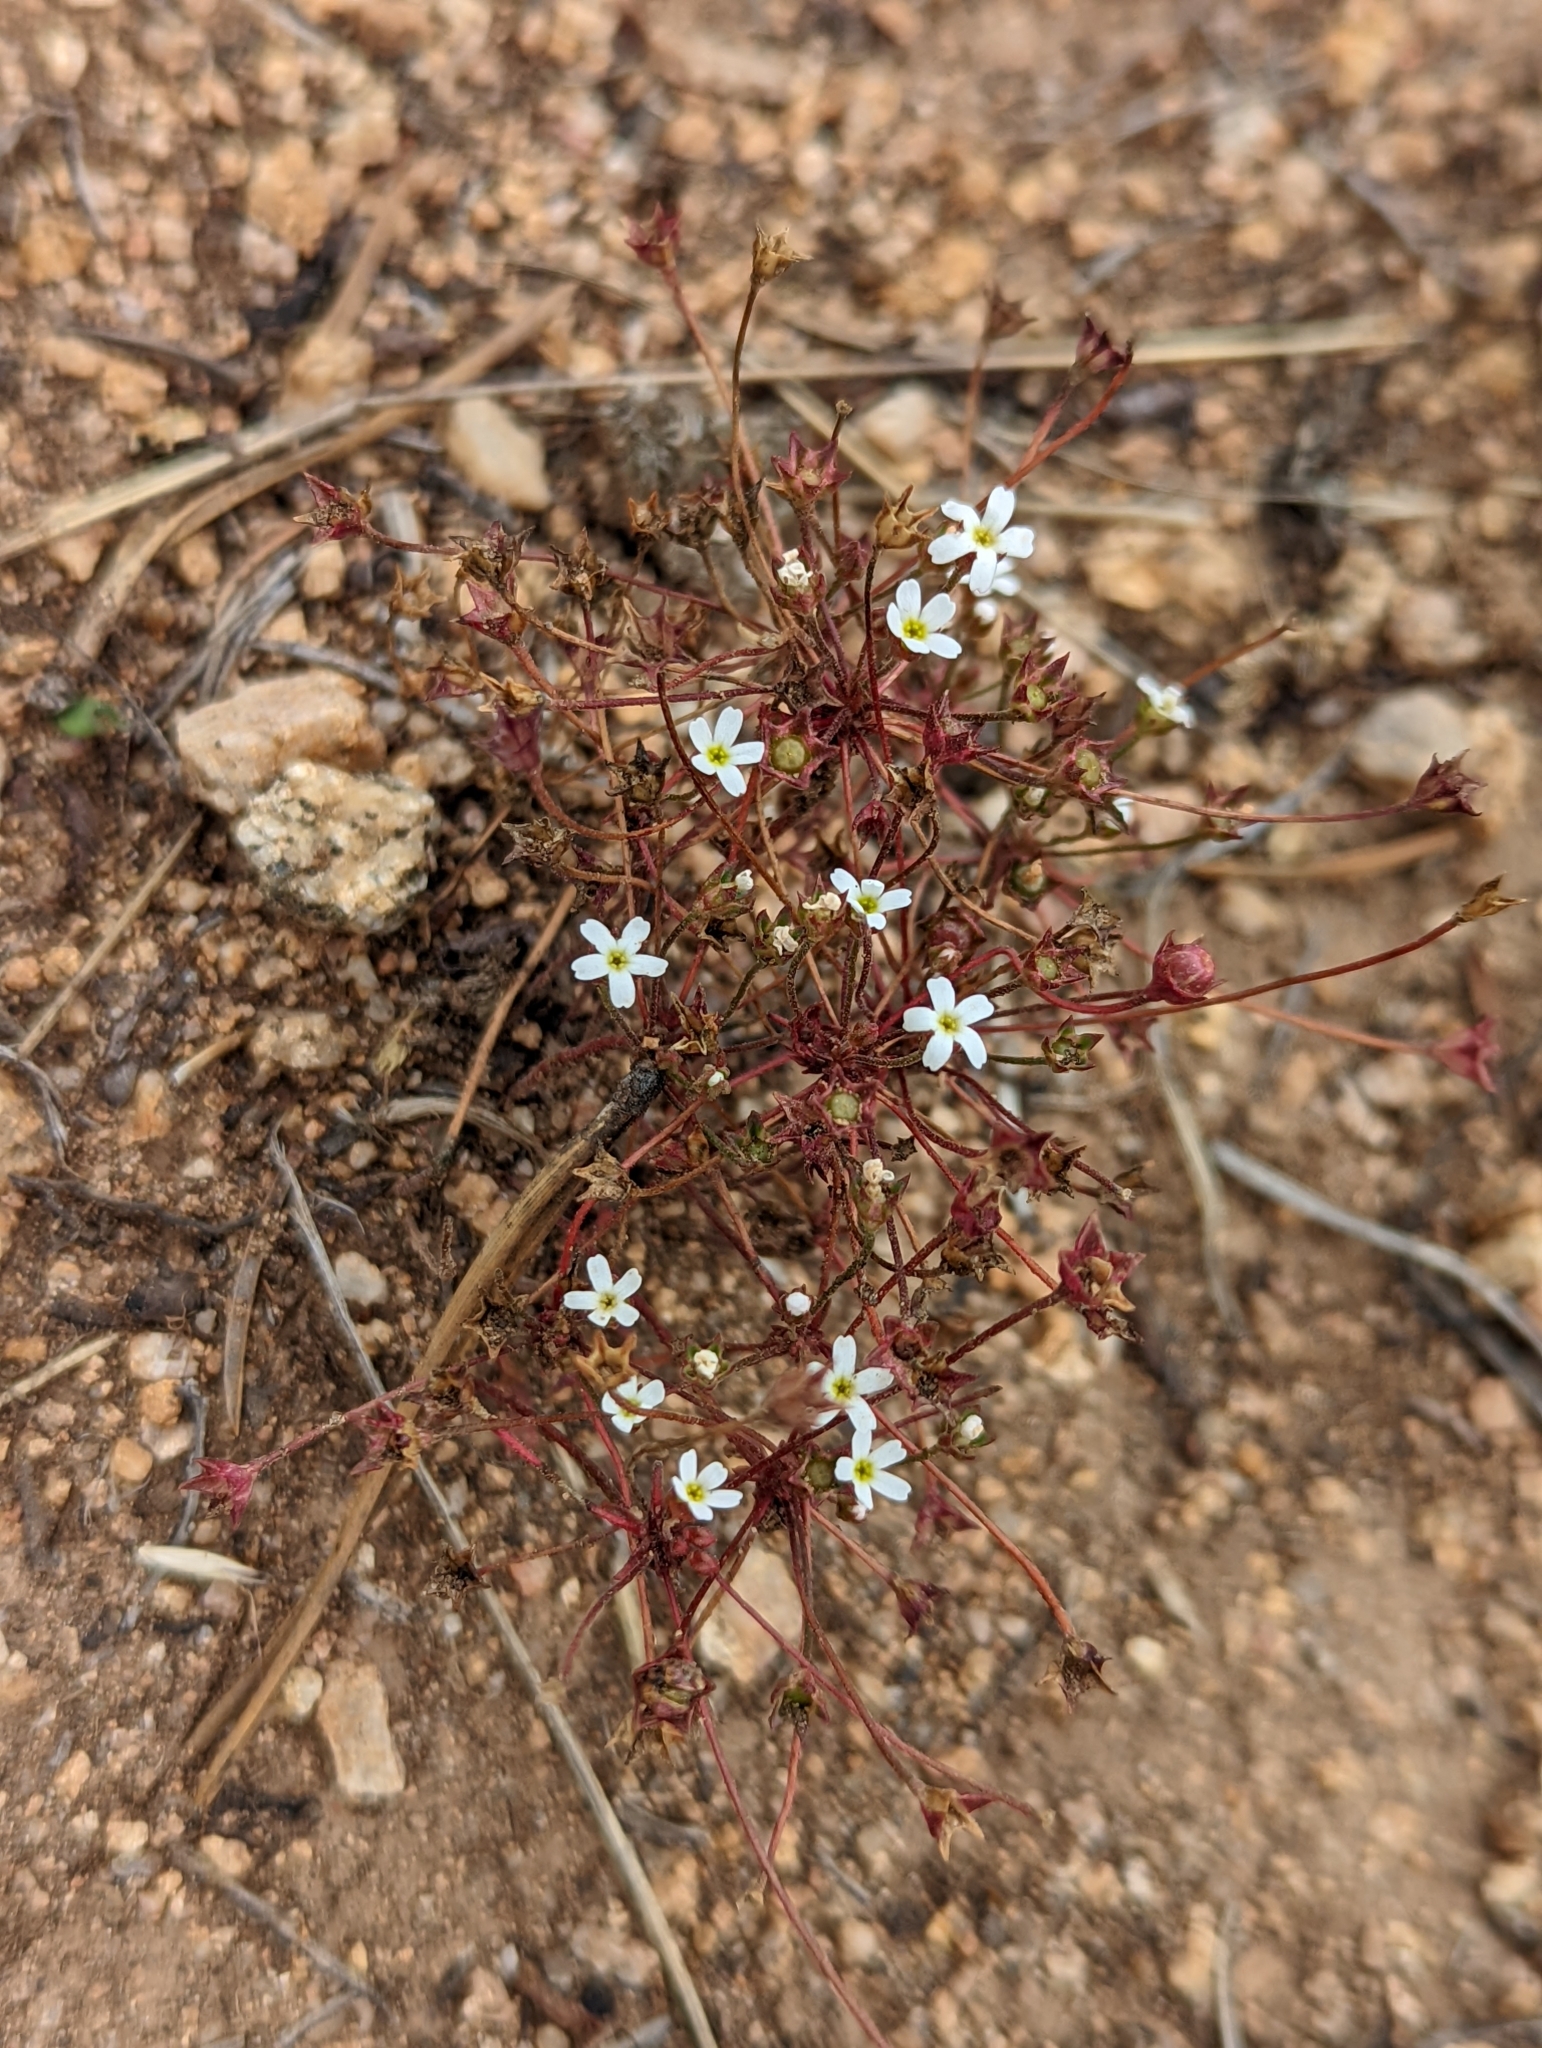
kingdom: Plantae
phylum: Tracheophyta
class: Magnoliopsida
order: Ericales
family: Primulaceae
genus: Androsace
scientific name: Androsace septentrionalis
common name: Hairy northern fairy-candelabra
